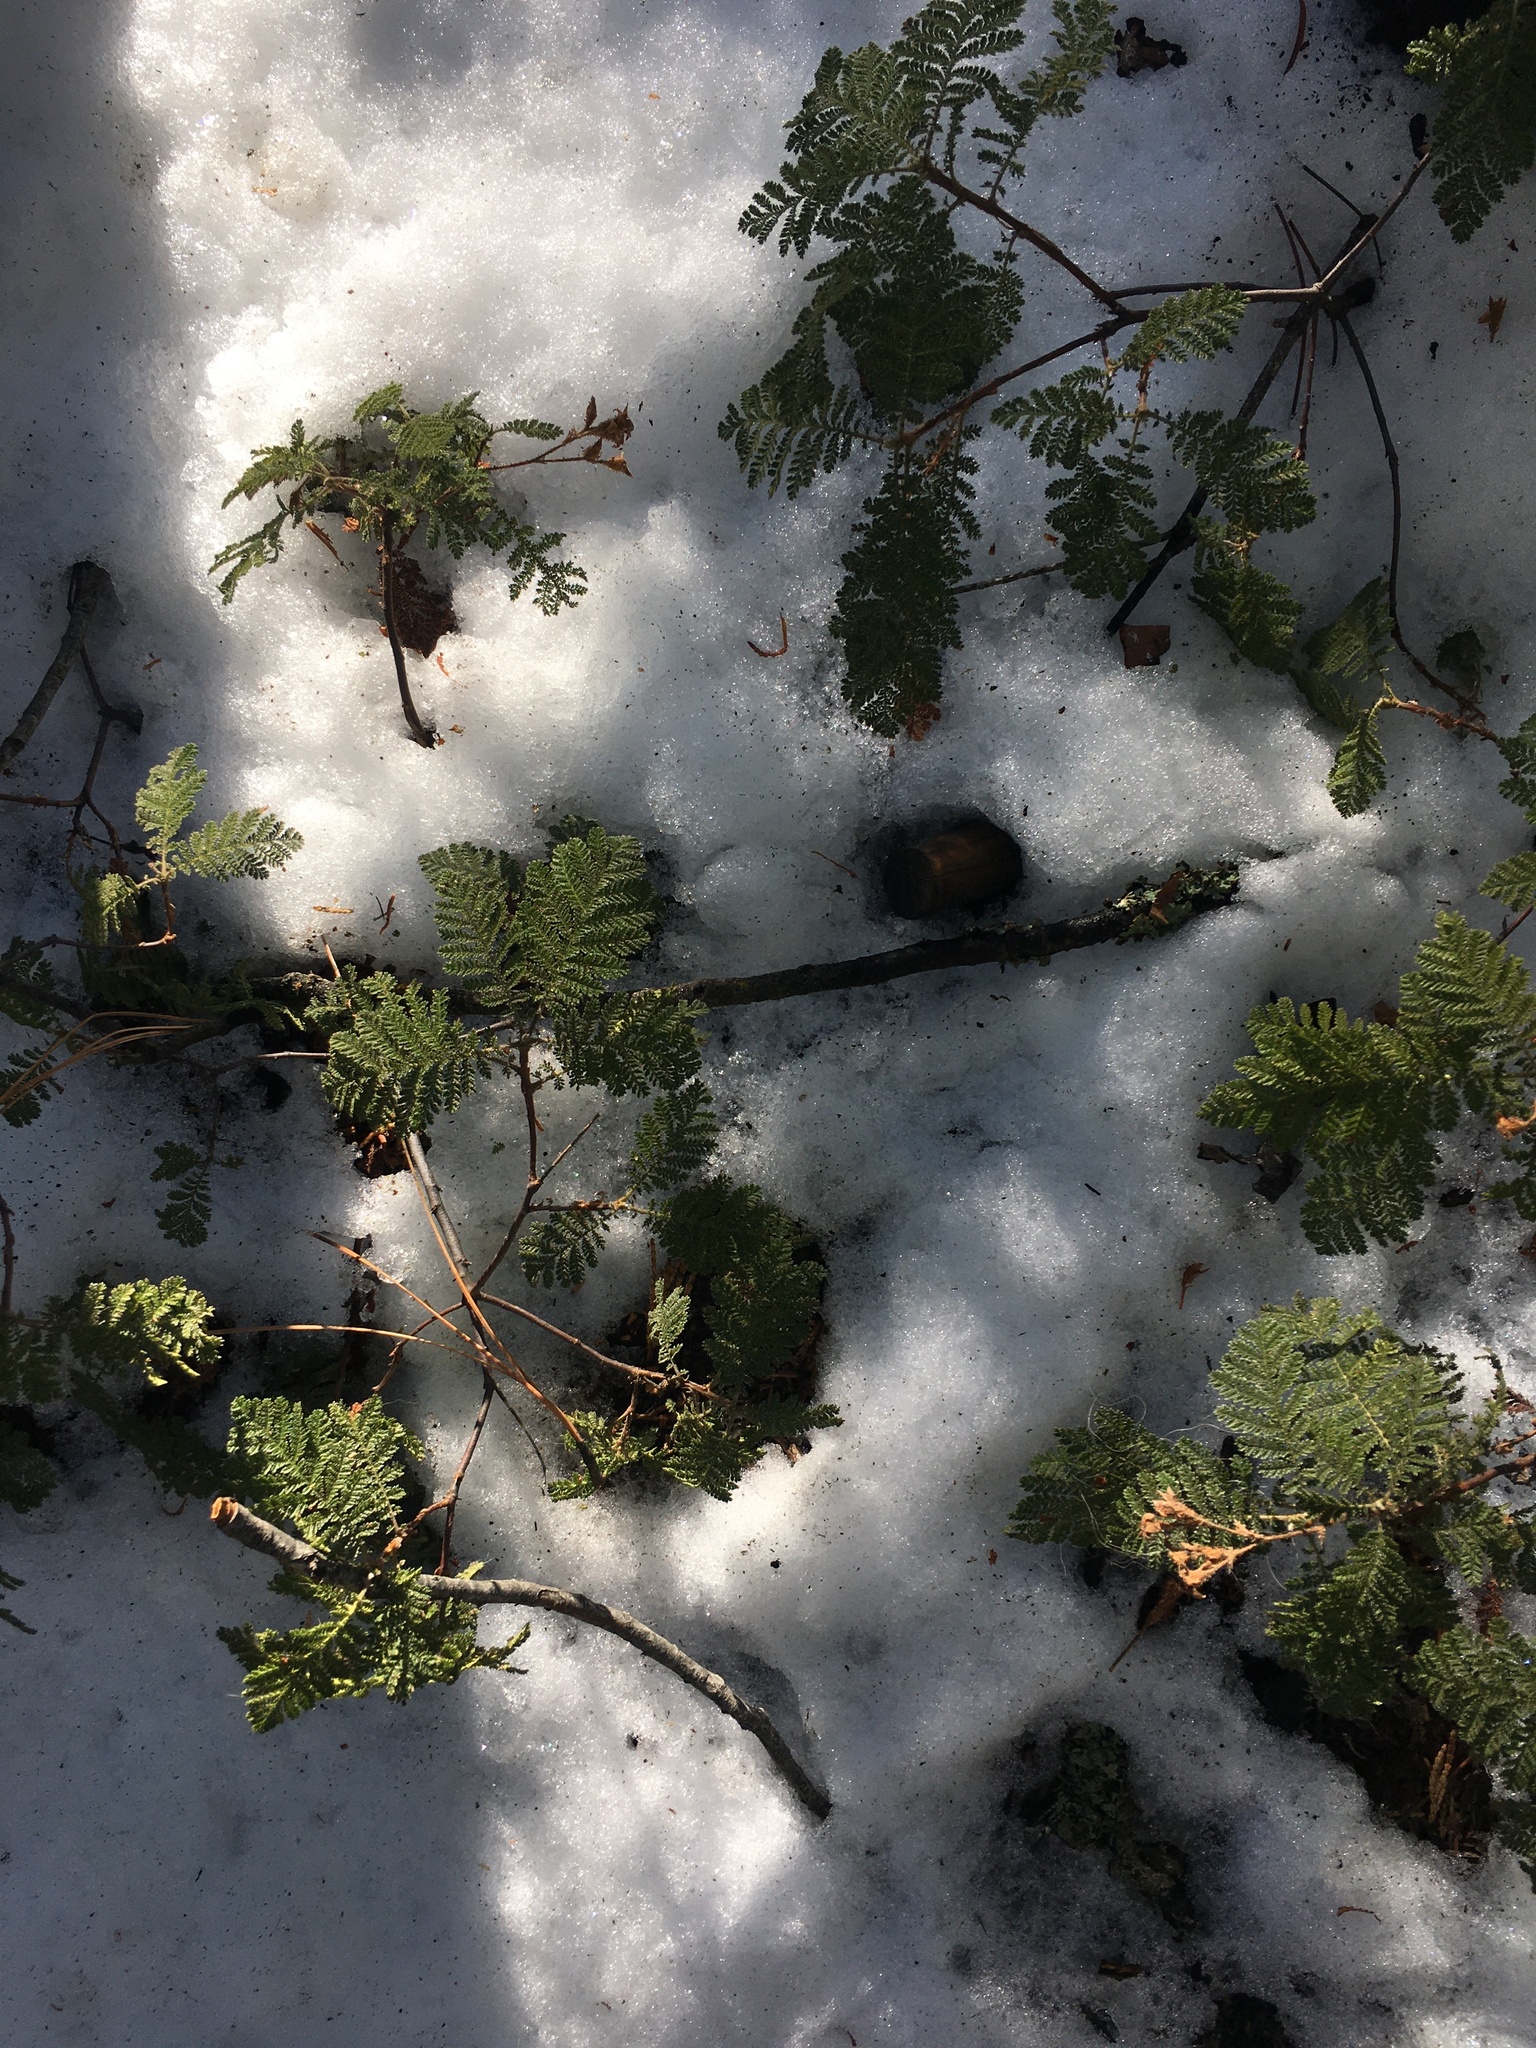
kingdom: Plantae
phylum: Tracheophyta
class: Magnoliopsida
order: Rosales
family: Rosaceae
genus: Chamaebatia
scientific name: Chamaebatia foliolosa
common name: Mountain misery
